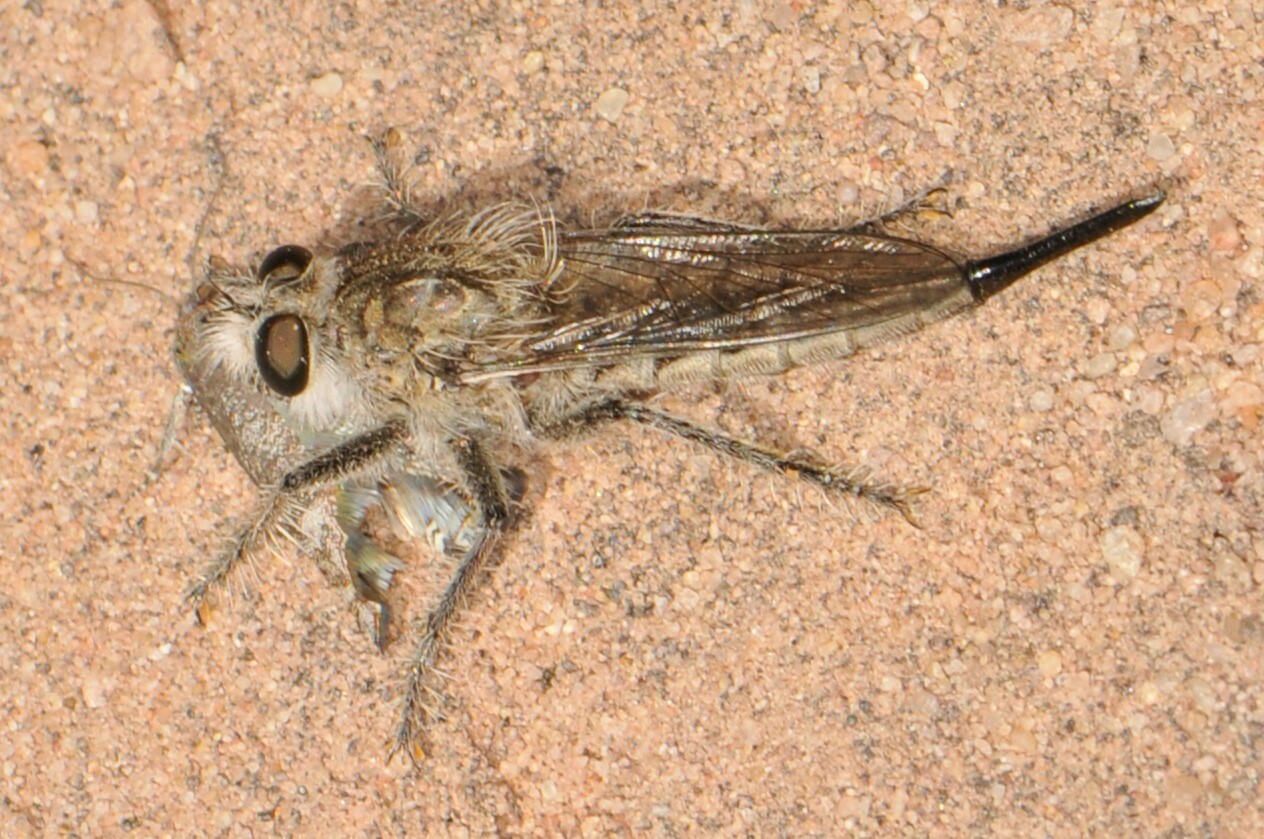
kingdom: Animalia
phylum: Arthropoda
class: Insecta
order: Diptera
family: Asilidae
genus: Efferia
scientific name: Efferia
